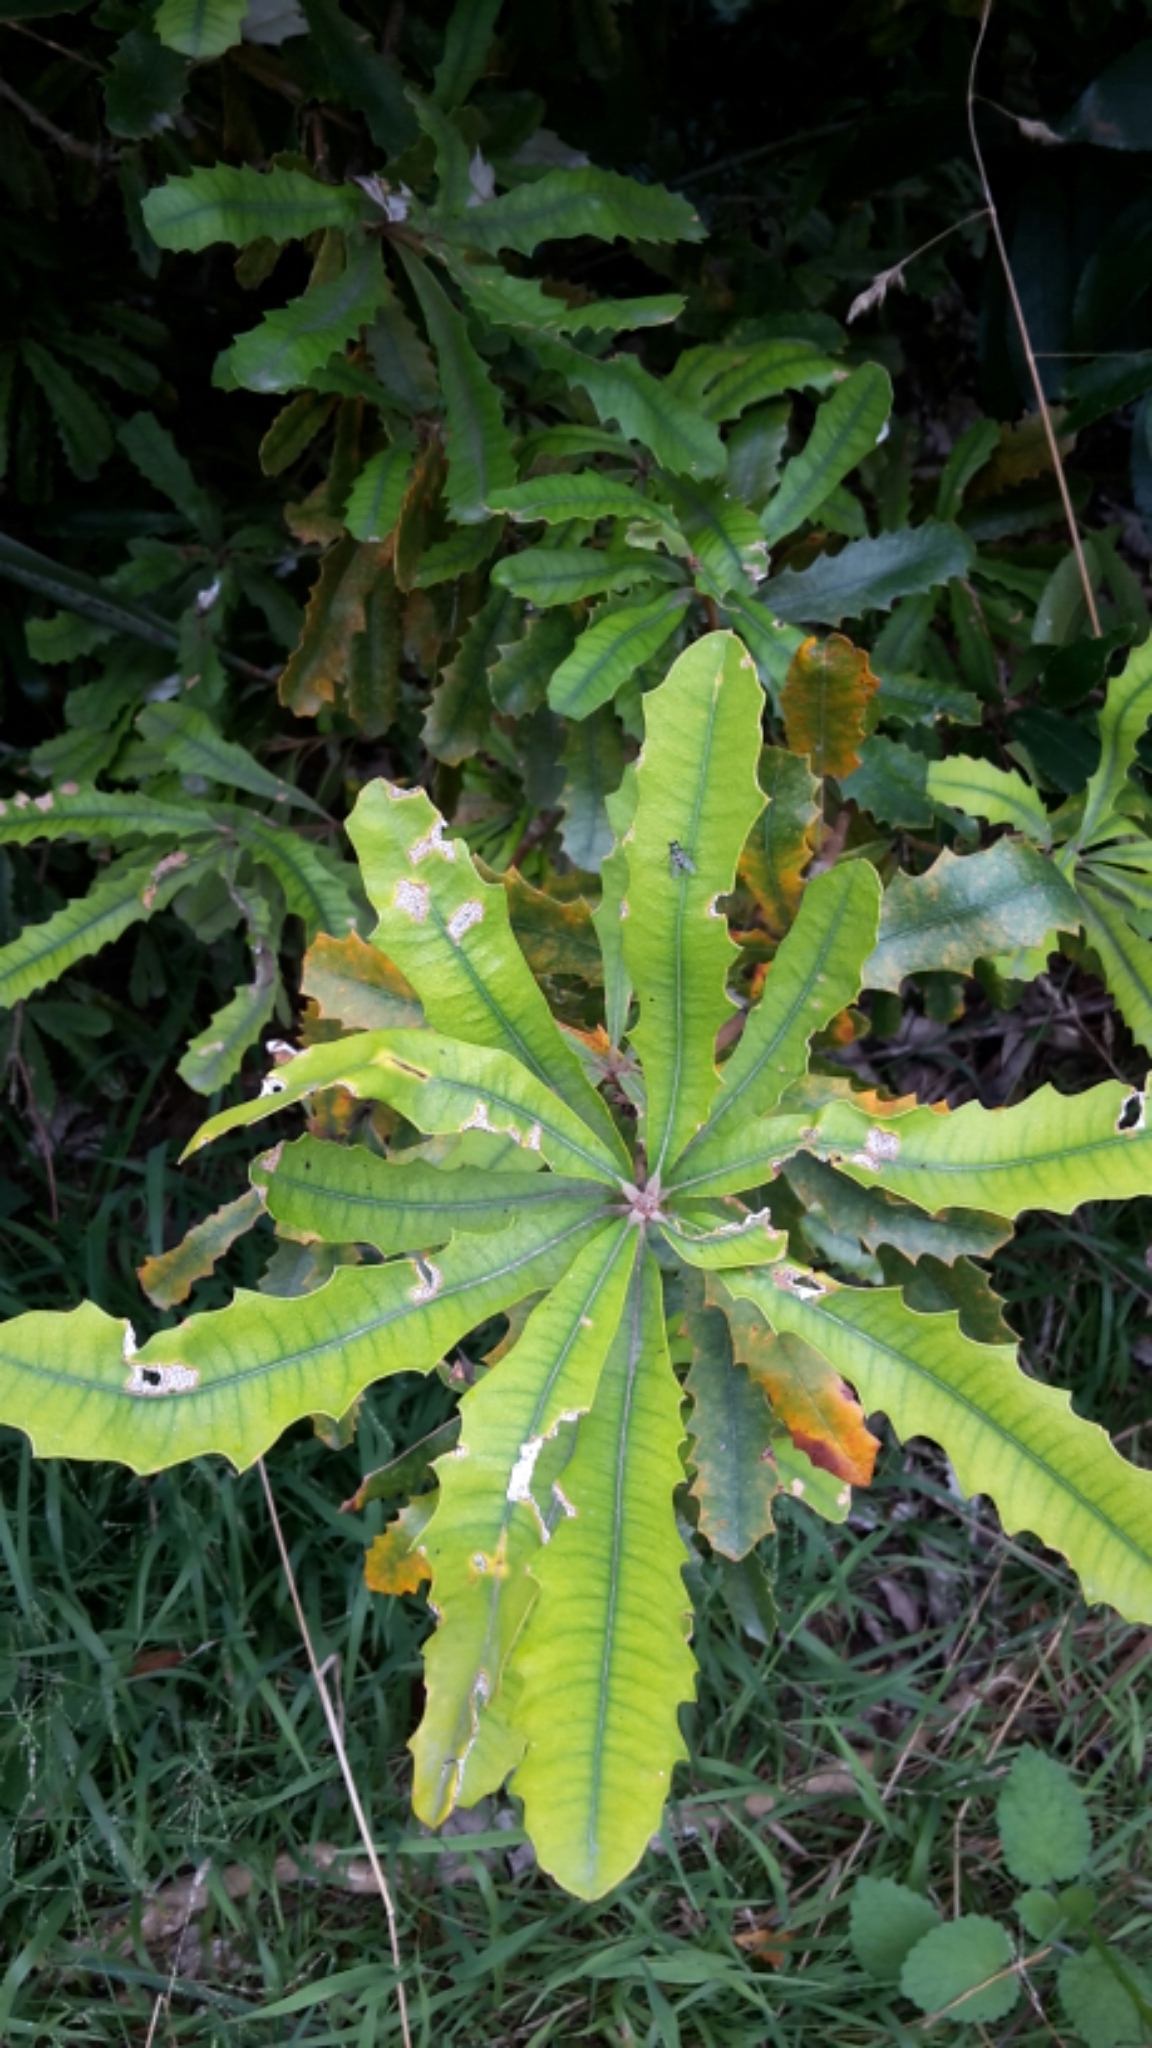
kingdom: Plantae
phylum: Tracheophyta
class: Magnoliopsida
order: Proteales
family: Proteaceae
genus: Banksia
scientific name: Banksia integrifolia
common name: White-honeysuckle
